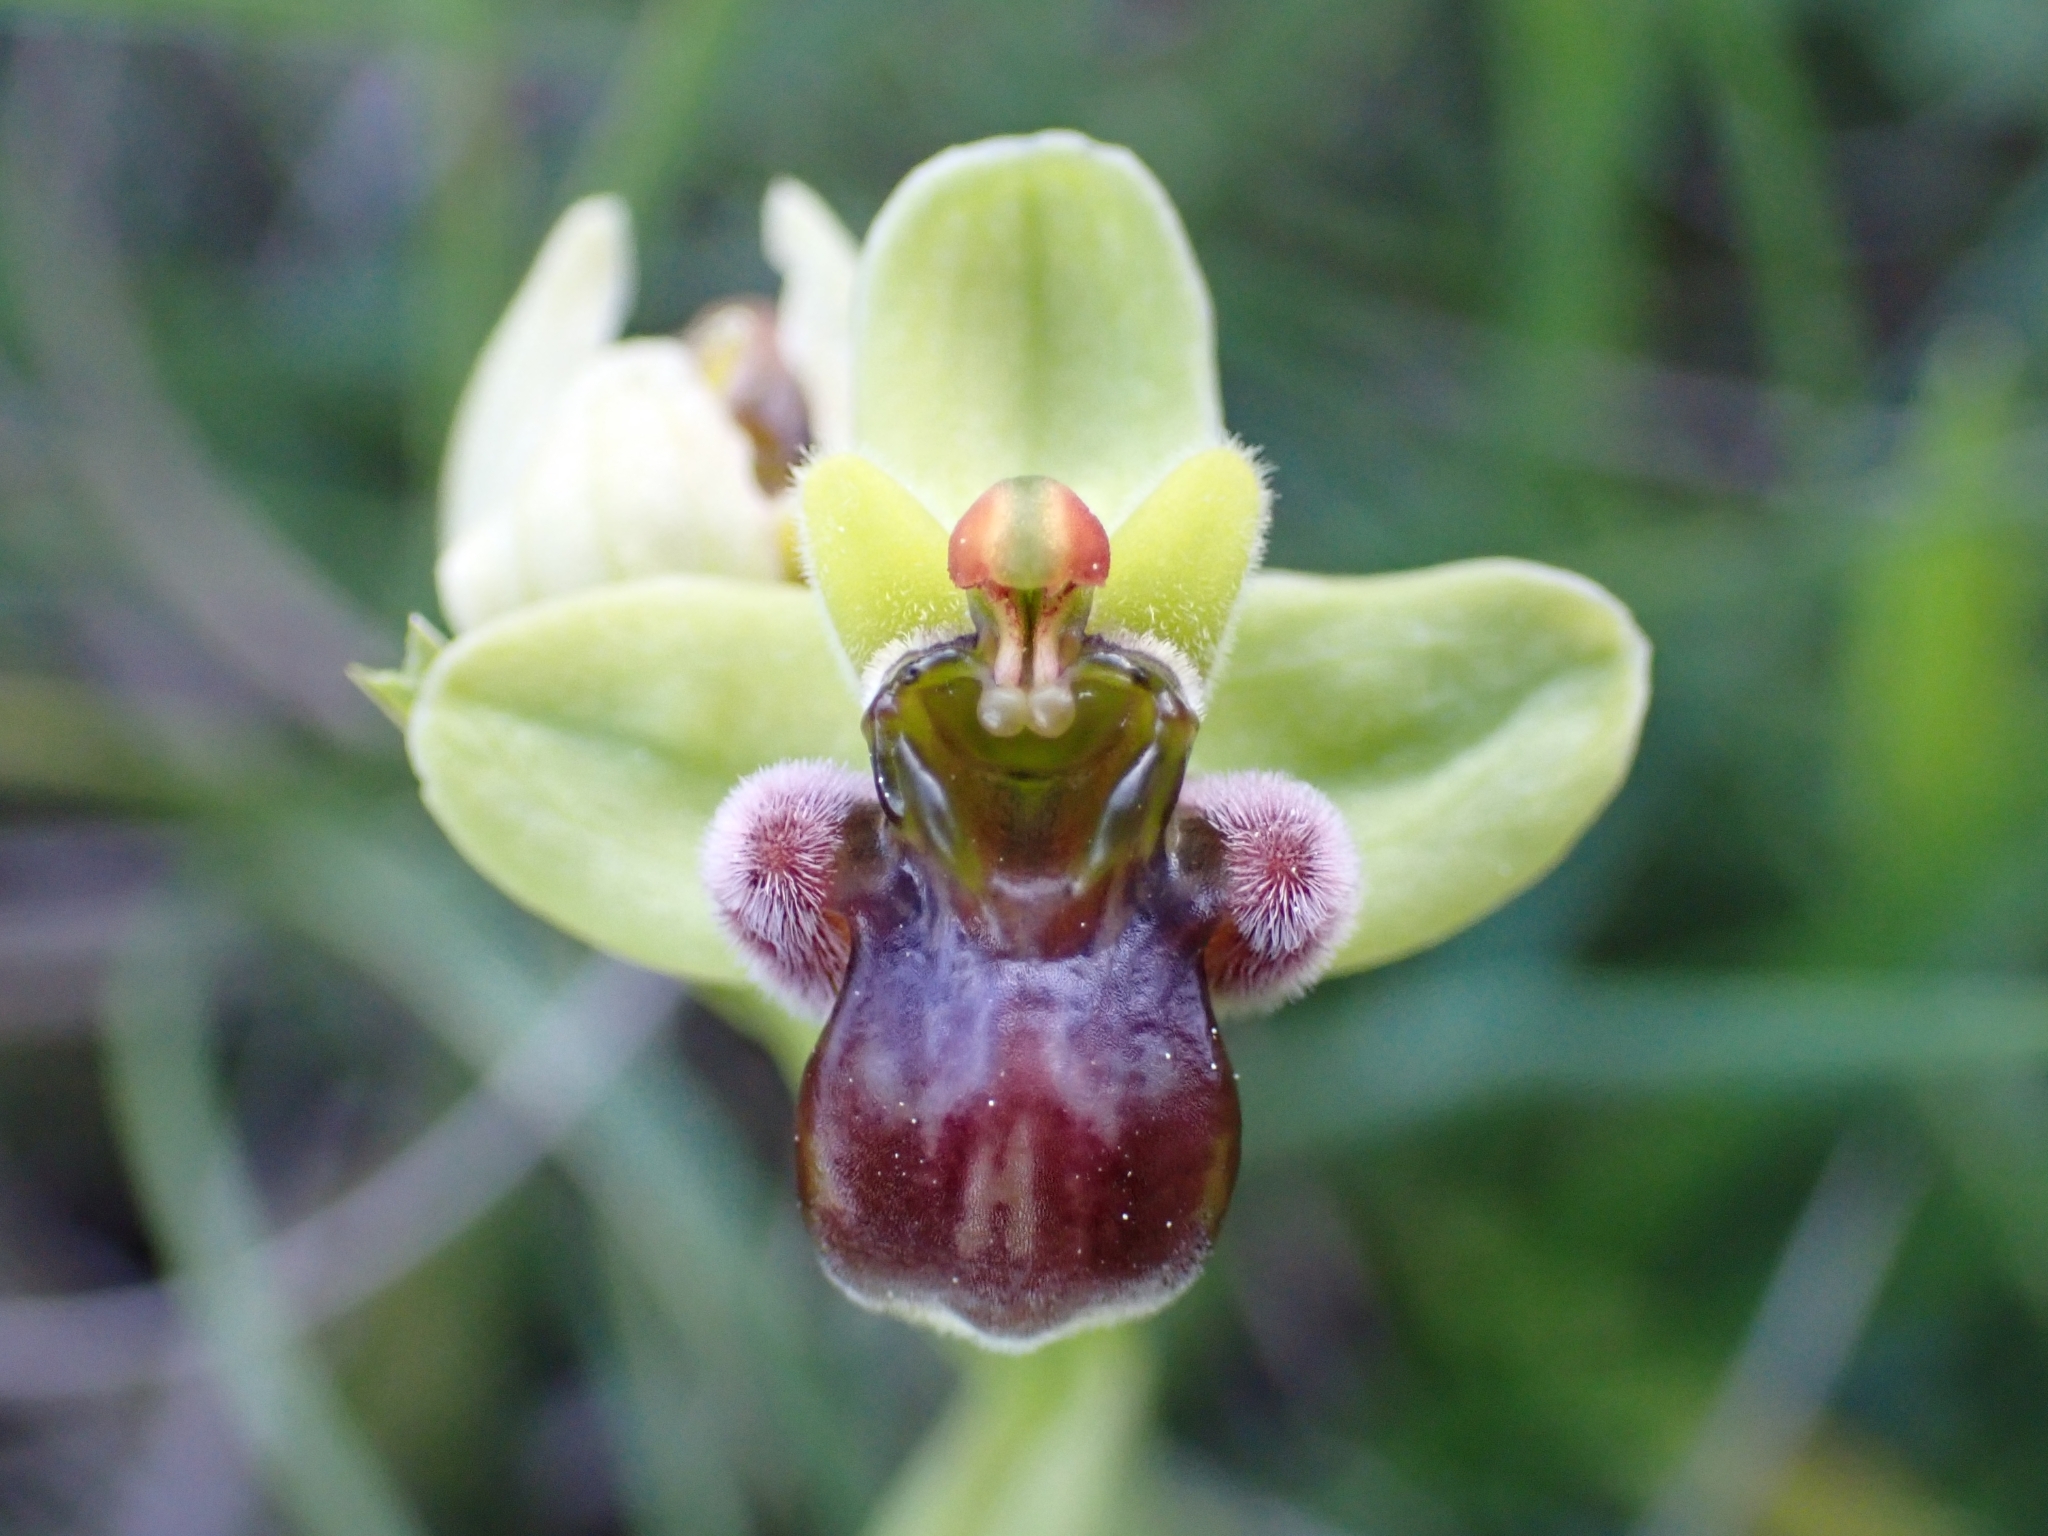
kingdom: Plantae
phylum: Tracheophyta
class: Liliopsida
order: Asparagales
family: Orchidaceae
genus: Ophrys
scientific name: Ophrys bombyliflora
